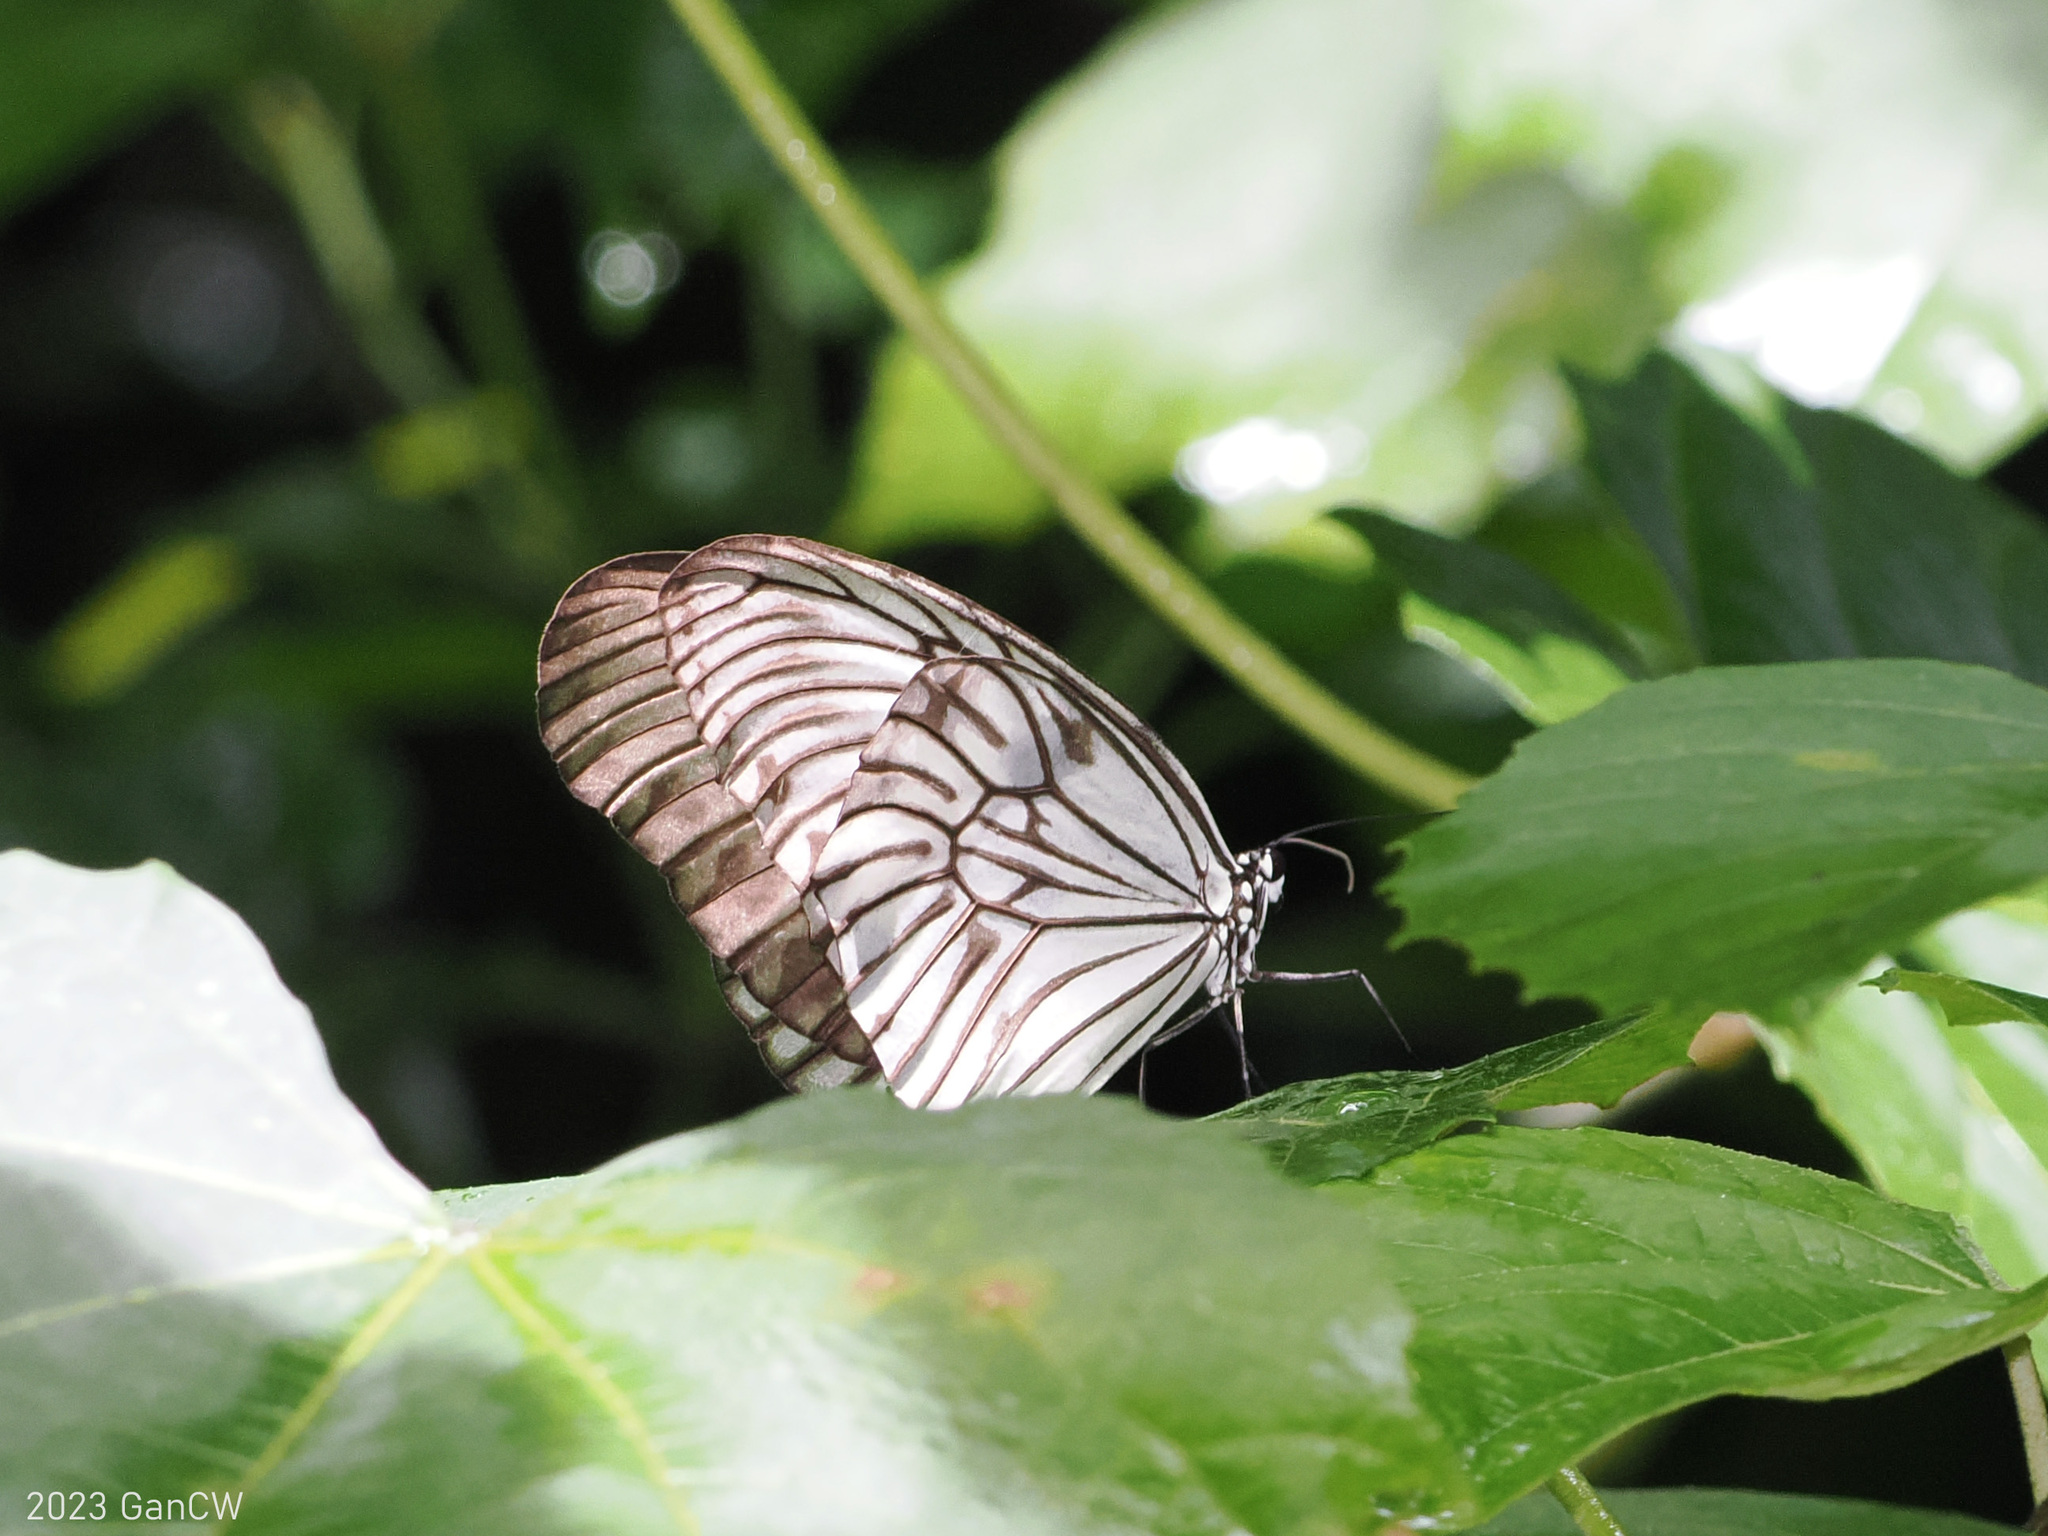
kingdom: Animalia
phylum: Arthropoda
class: Insecta
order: Lepidoptera
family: Nymphalidae
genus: Idea
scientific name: Idea blanchardii
